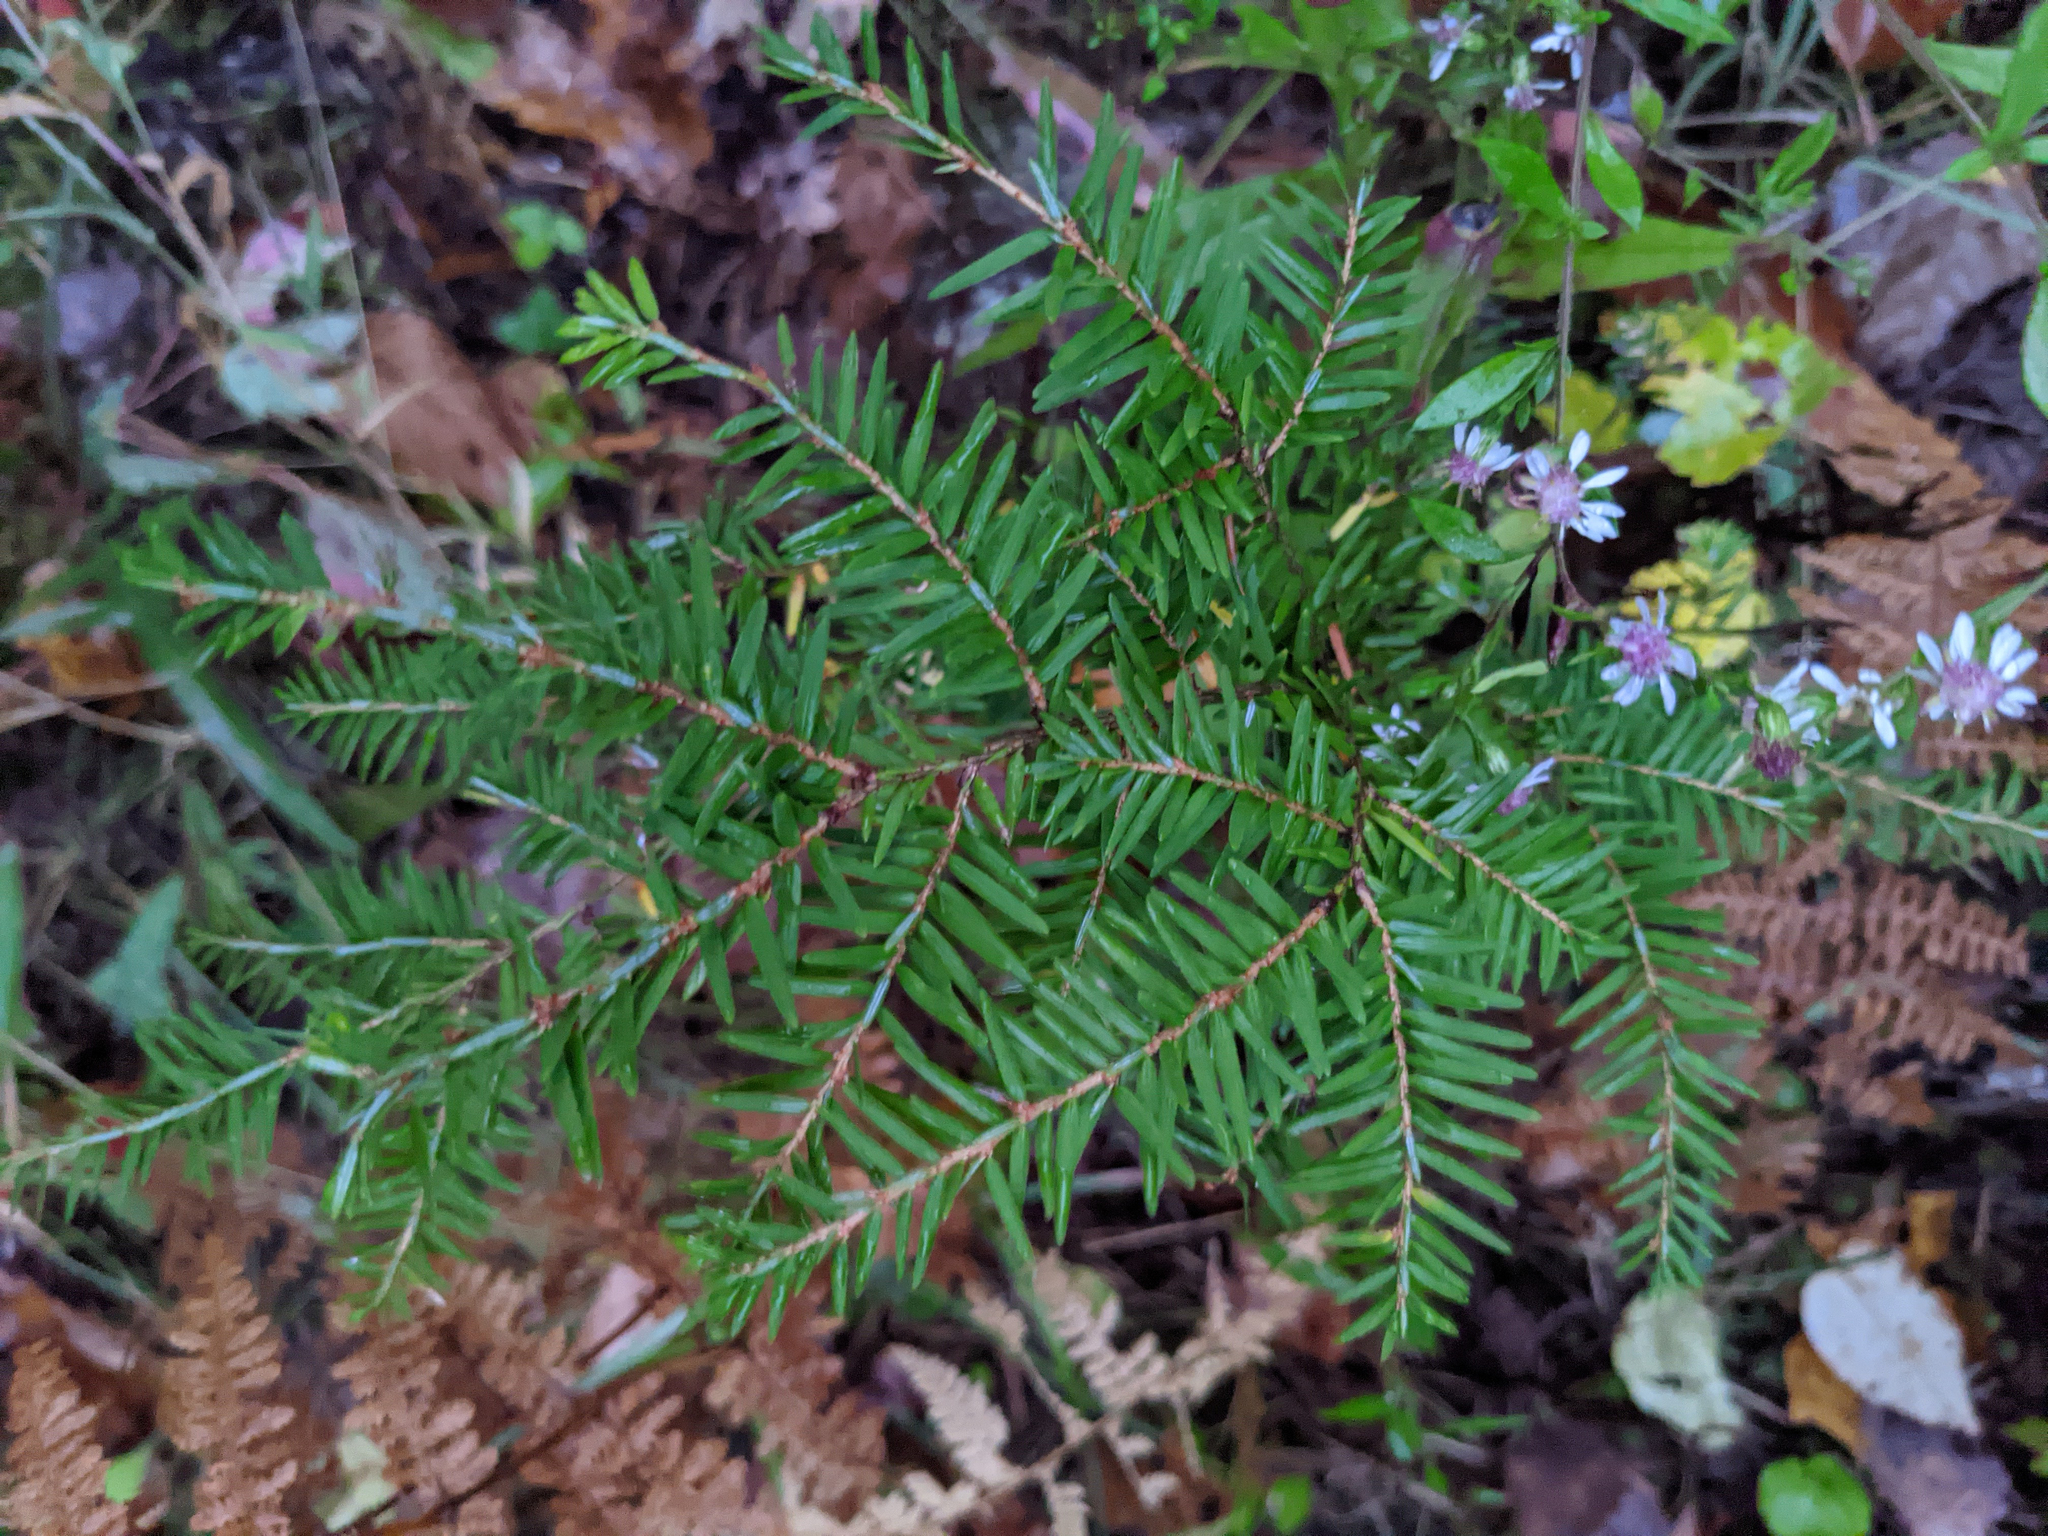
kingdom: Plantae
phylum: Tracheophyta
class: Pinopsida
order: Pinales
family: Pinaceae
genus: Tsuga
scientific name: Tsuga canadensis
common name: Eastern hemlock
